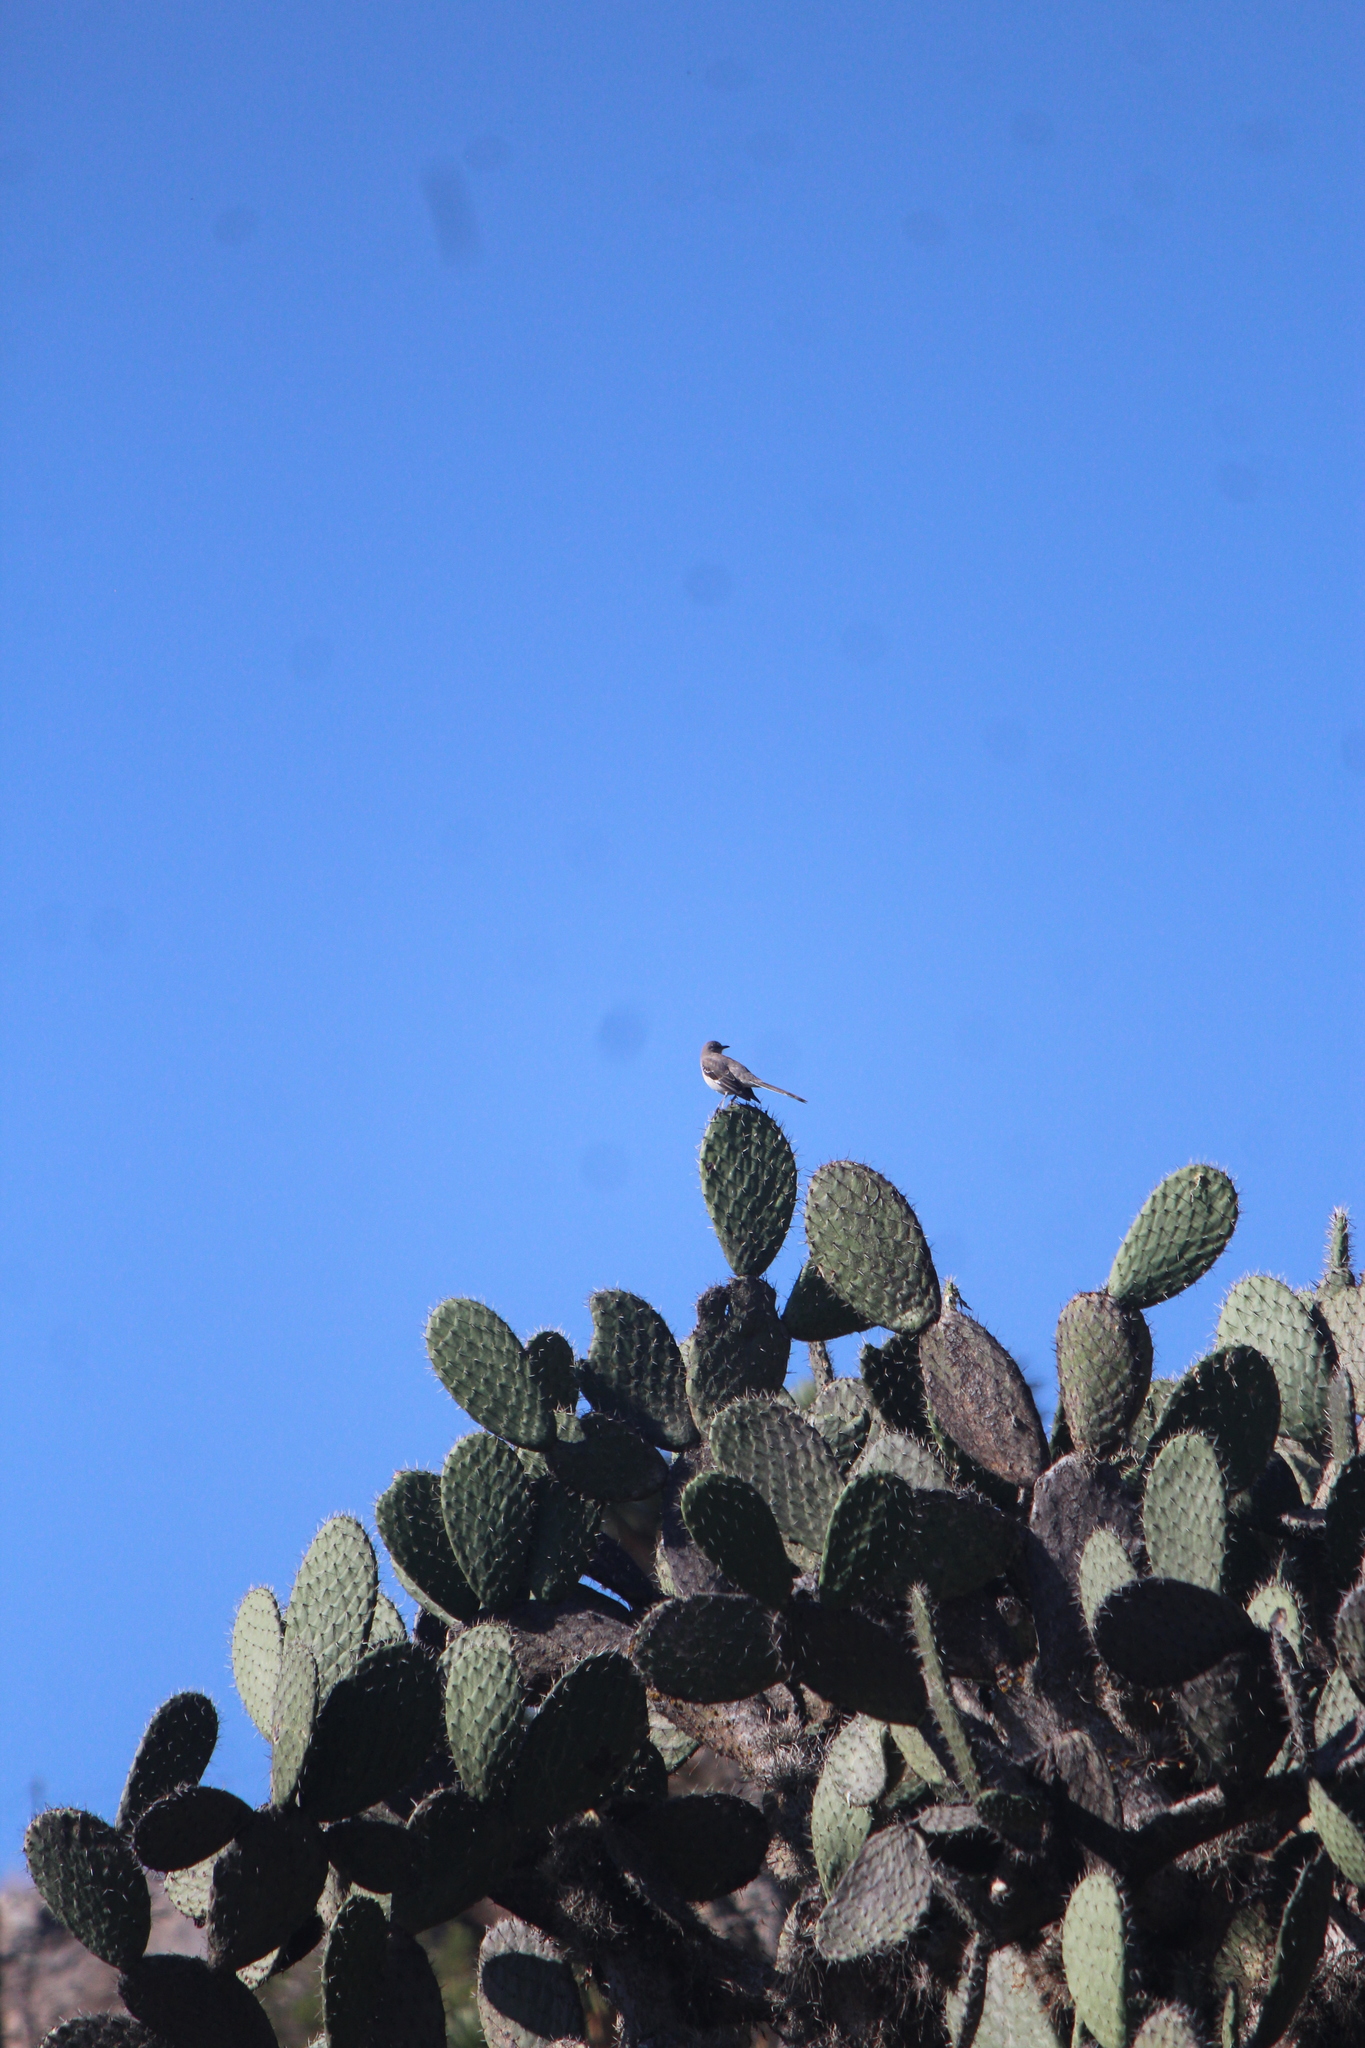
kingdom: Animalia
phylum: Chordata
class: Aves
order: Passeriformes
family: Mimidae
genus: Mimus
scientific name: Mimus polyglottos
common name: Northern mockingbird
